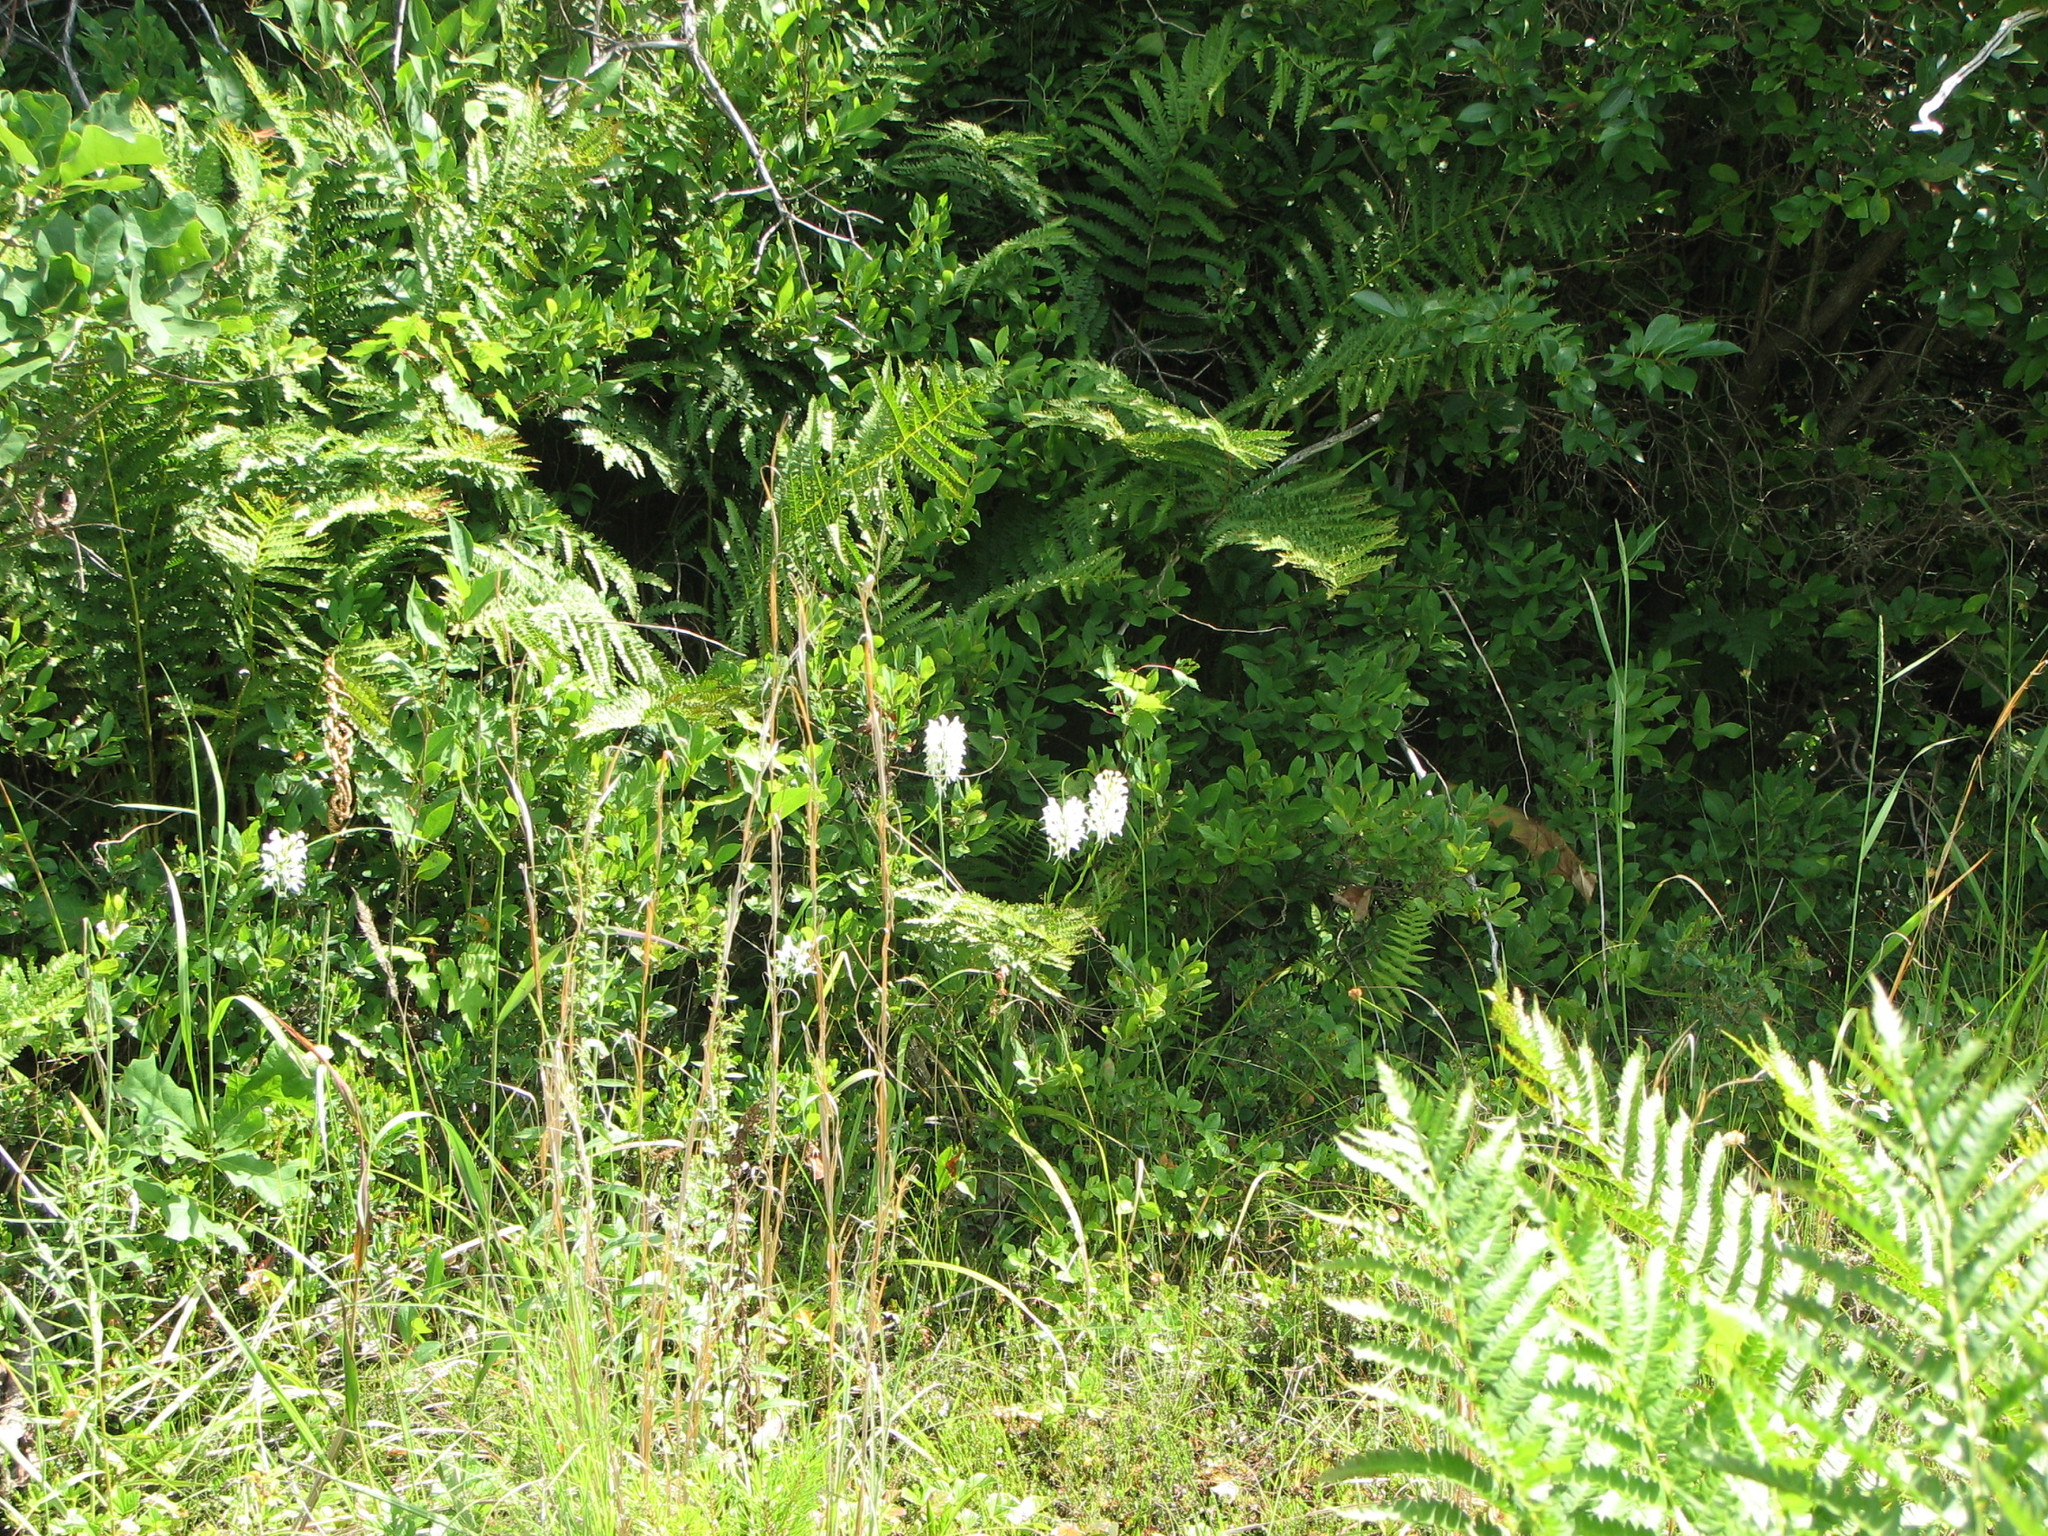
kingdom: Plantae
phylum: Tracheophyta
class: Liliopsida
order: Asparagales
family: Orchidaceae
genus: Platanthera
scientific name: Platanthera blephariglottis
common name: White fringed orchid
